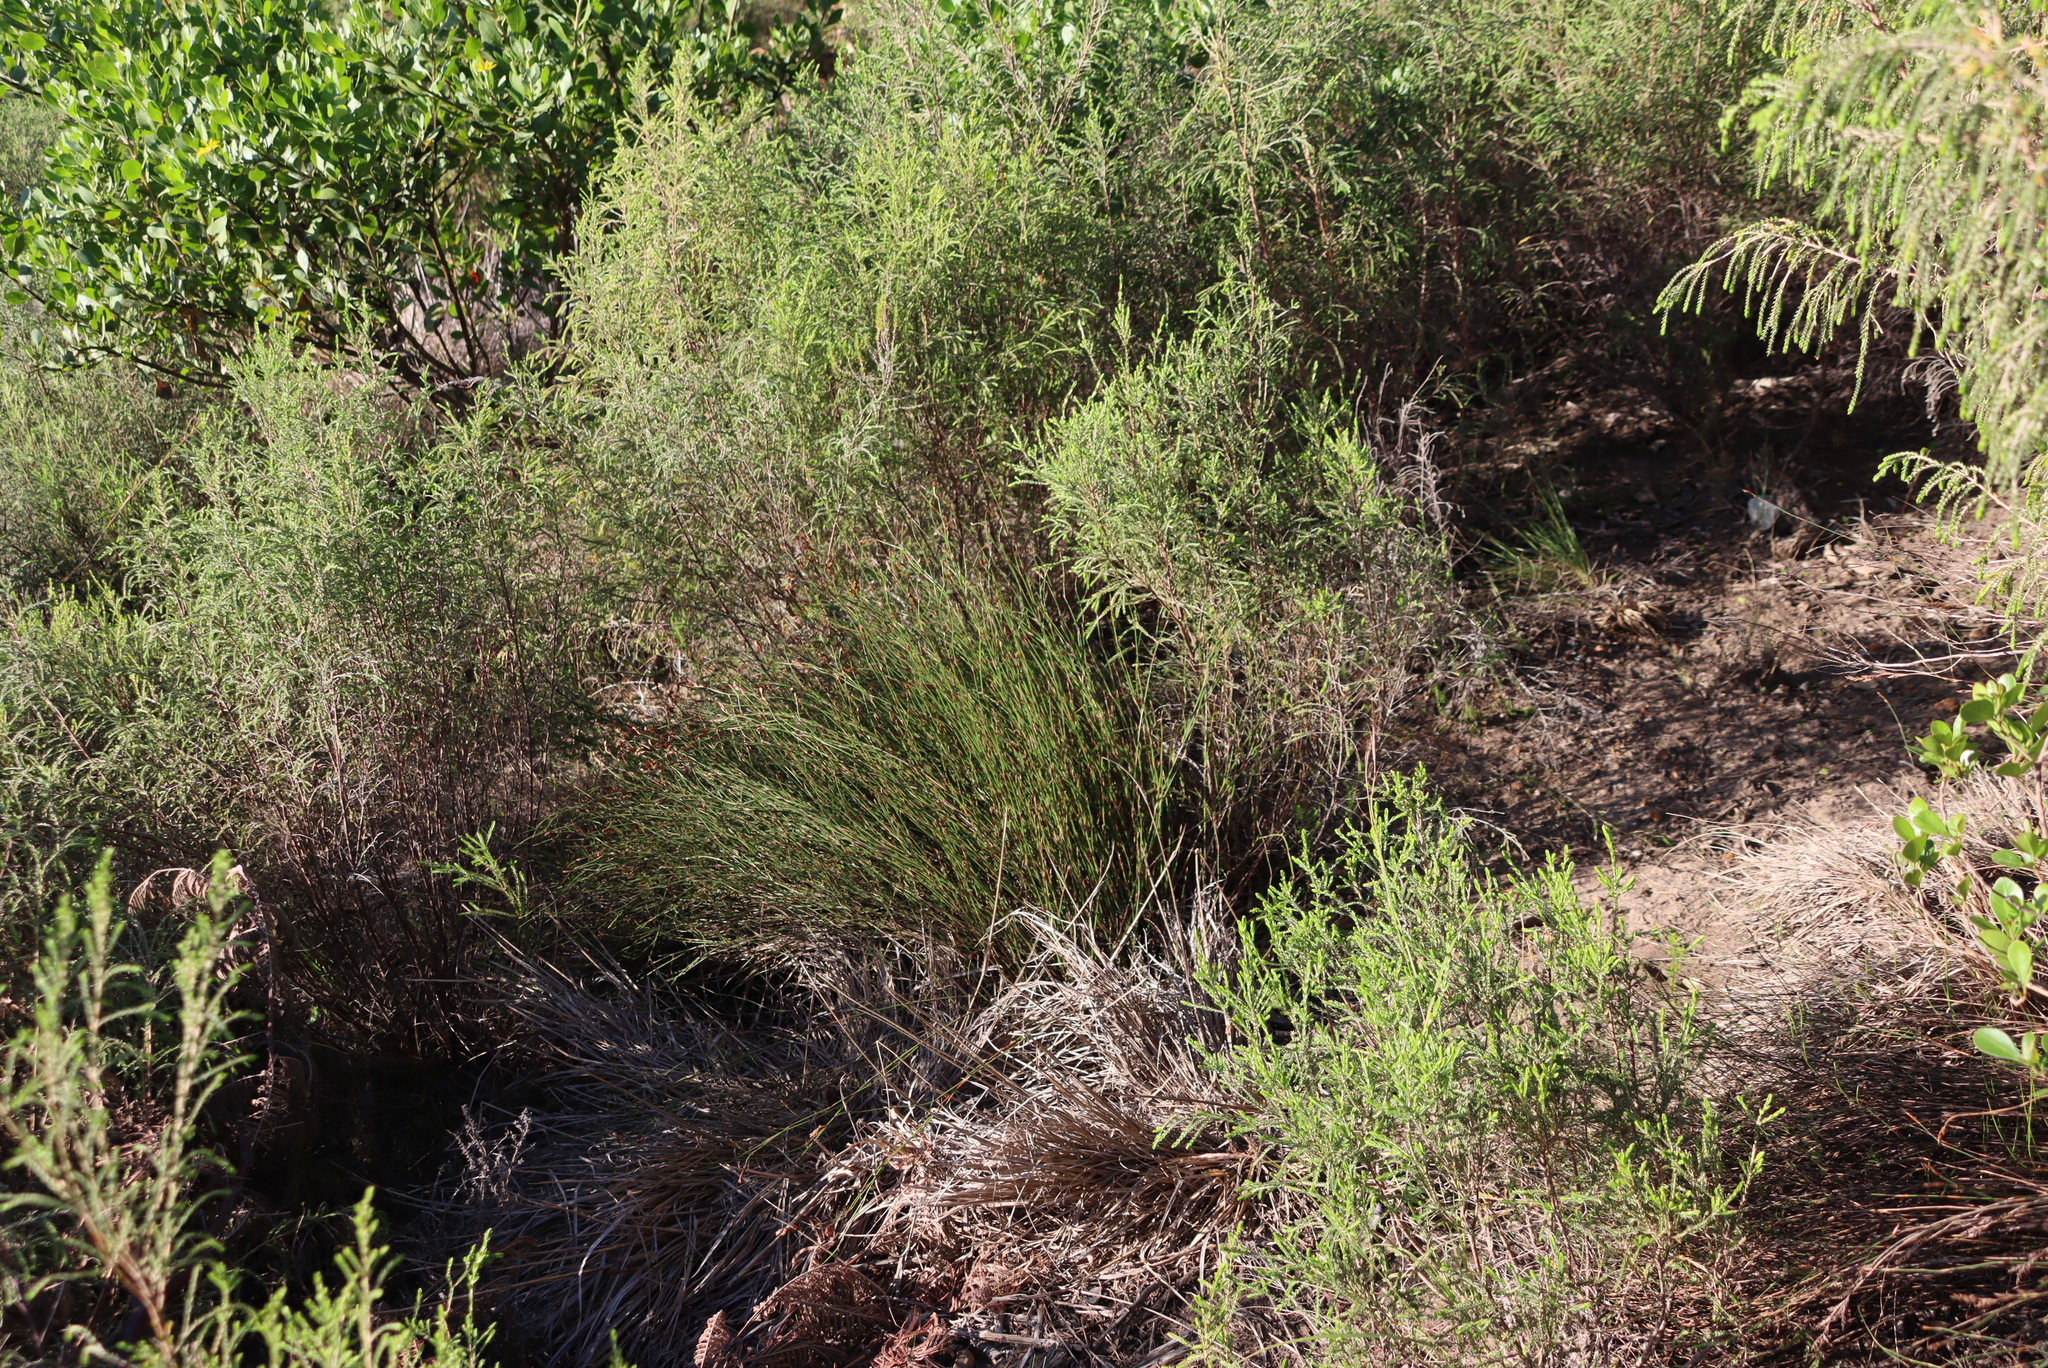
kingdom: Plantae
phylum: Tracheophyta
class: Liliopsida
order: Poales
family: Restionaceae
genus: Restio
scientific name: Restio triticeus
